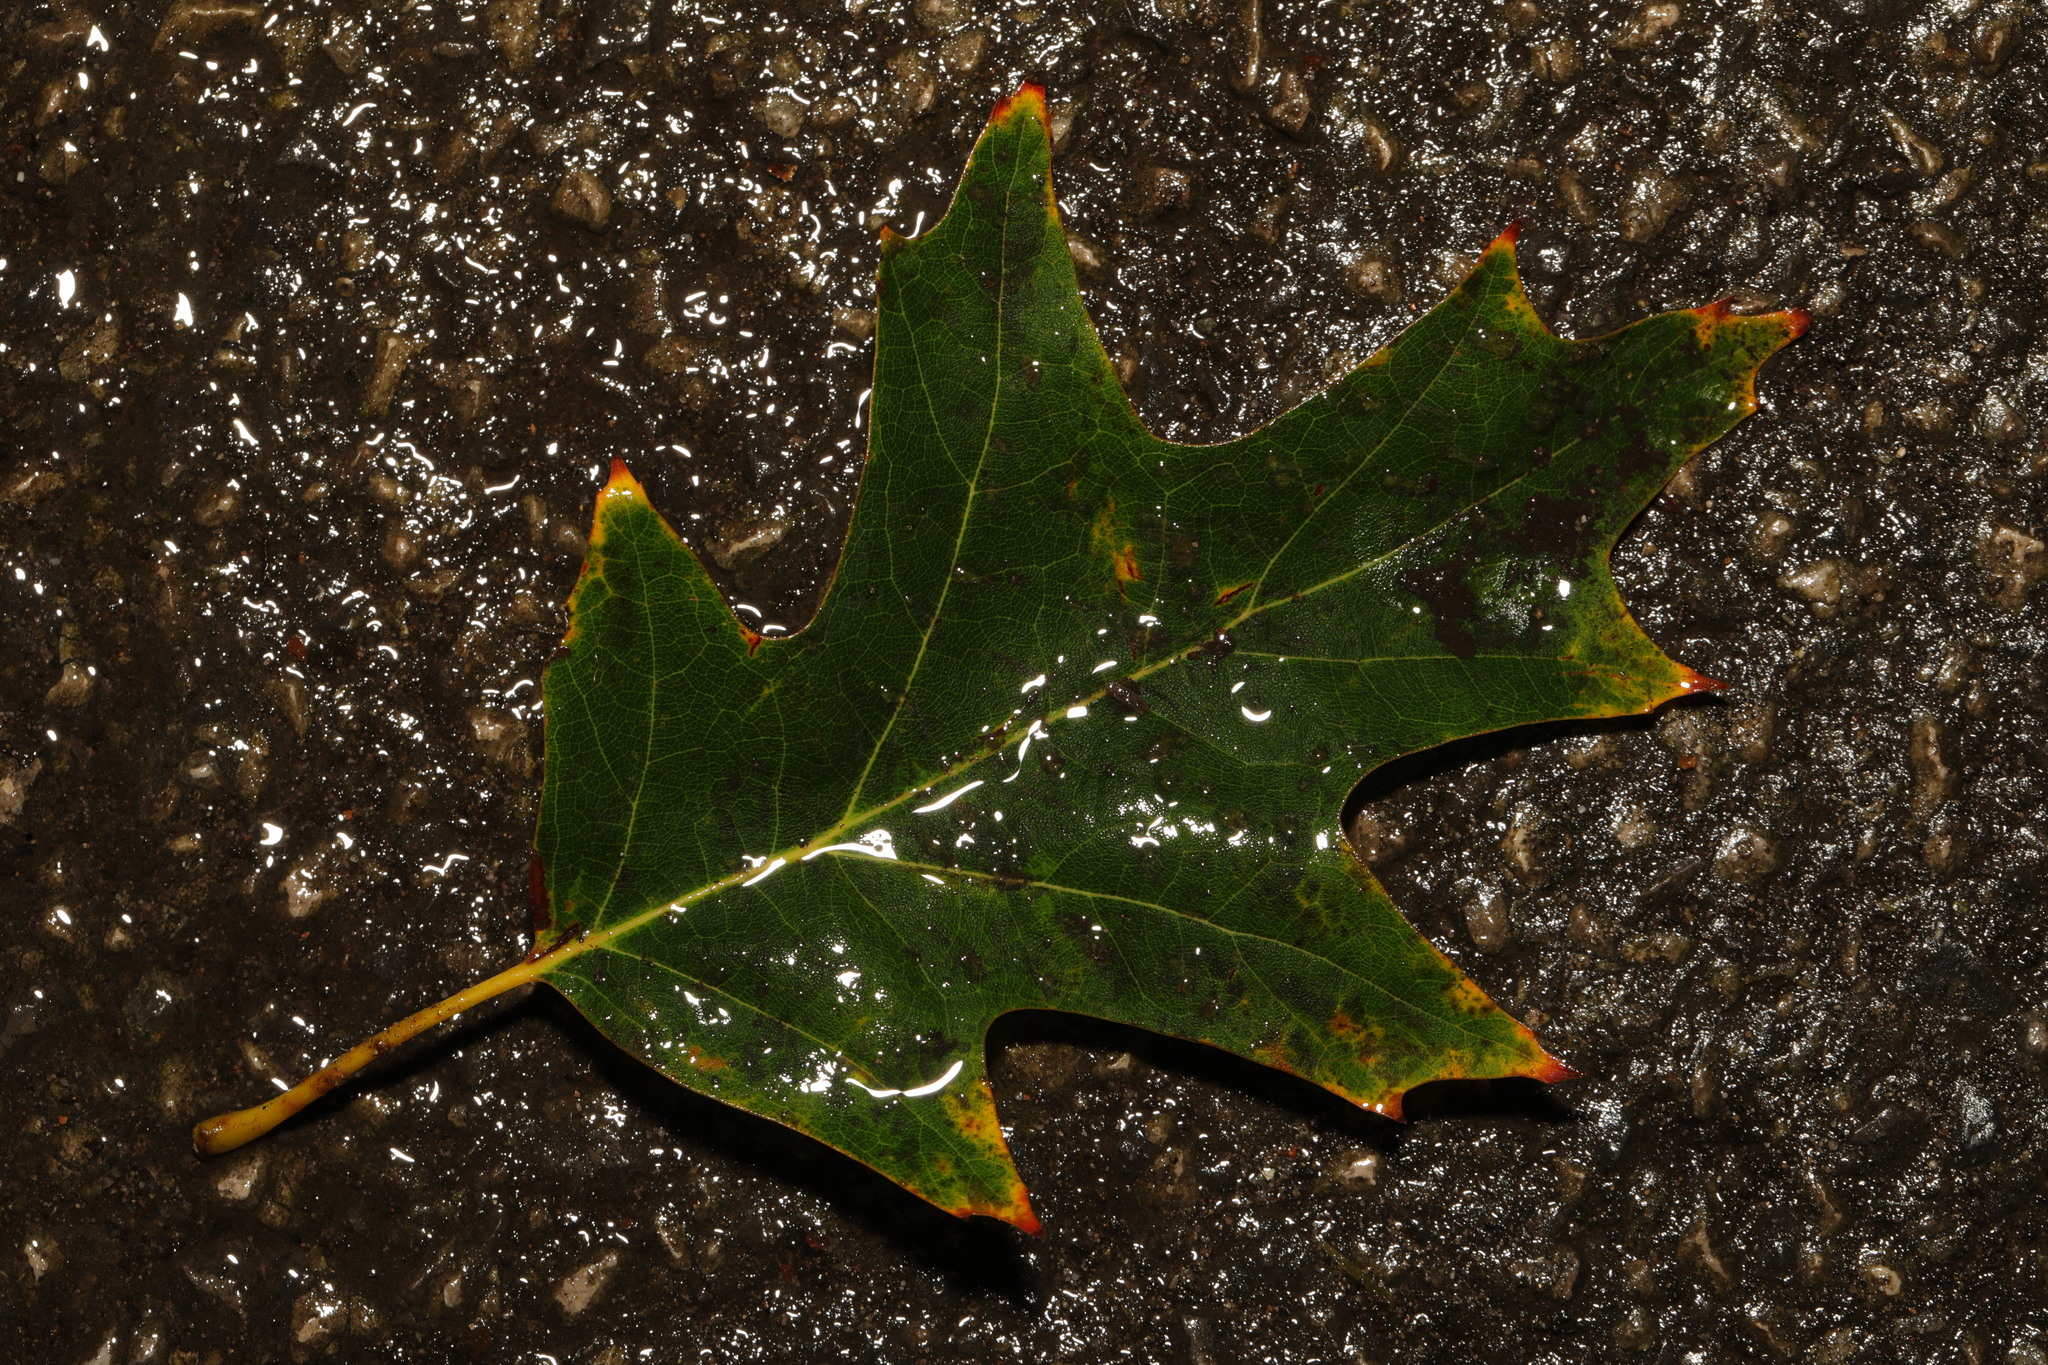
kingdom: Plantae
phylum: Tracheophyta
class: Magnoliopsida
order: Fagales
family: Fagaceae
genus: Quercus
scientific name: Quercus rubra
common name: Red oak
